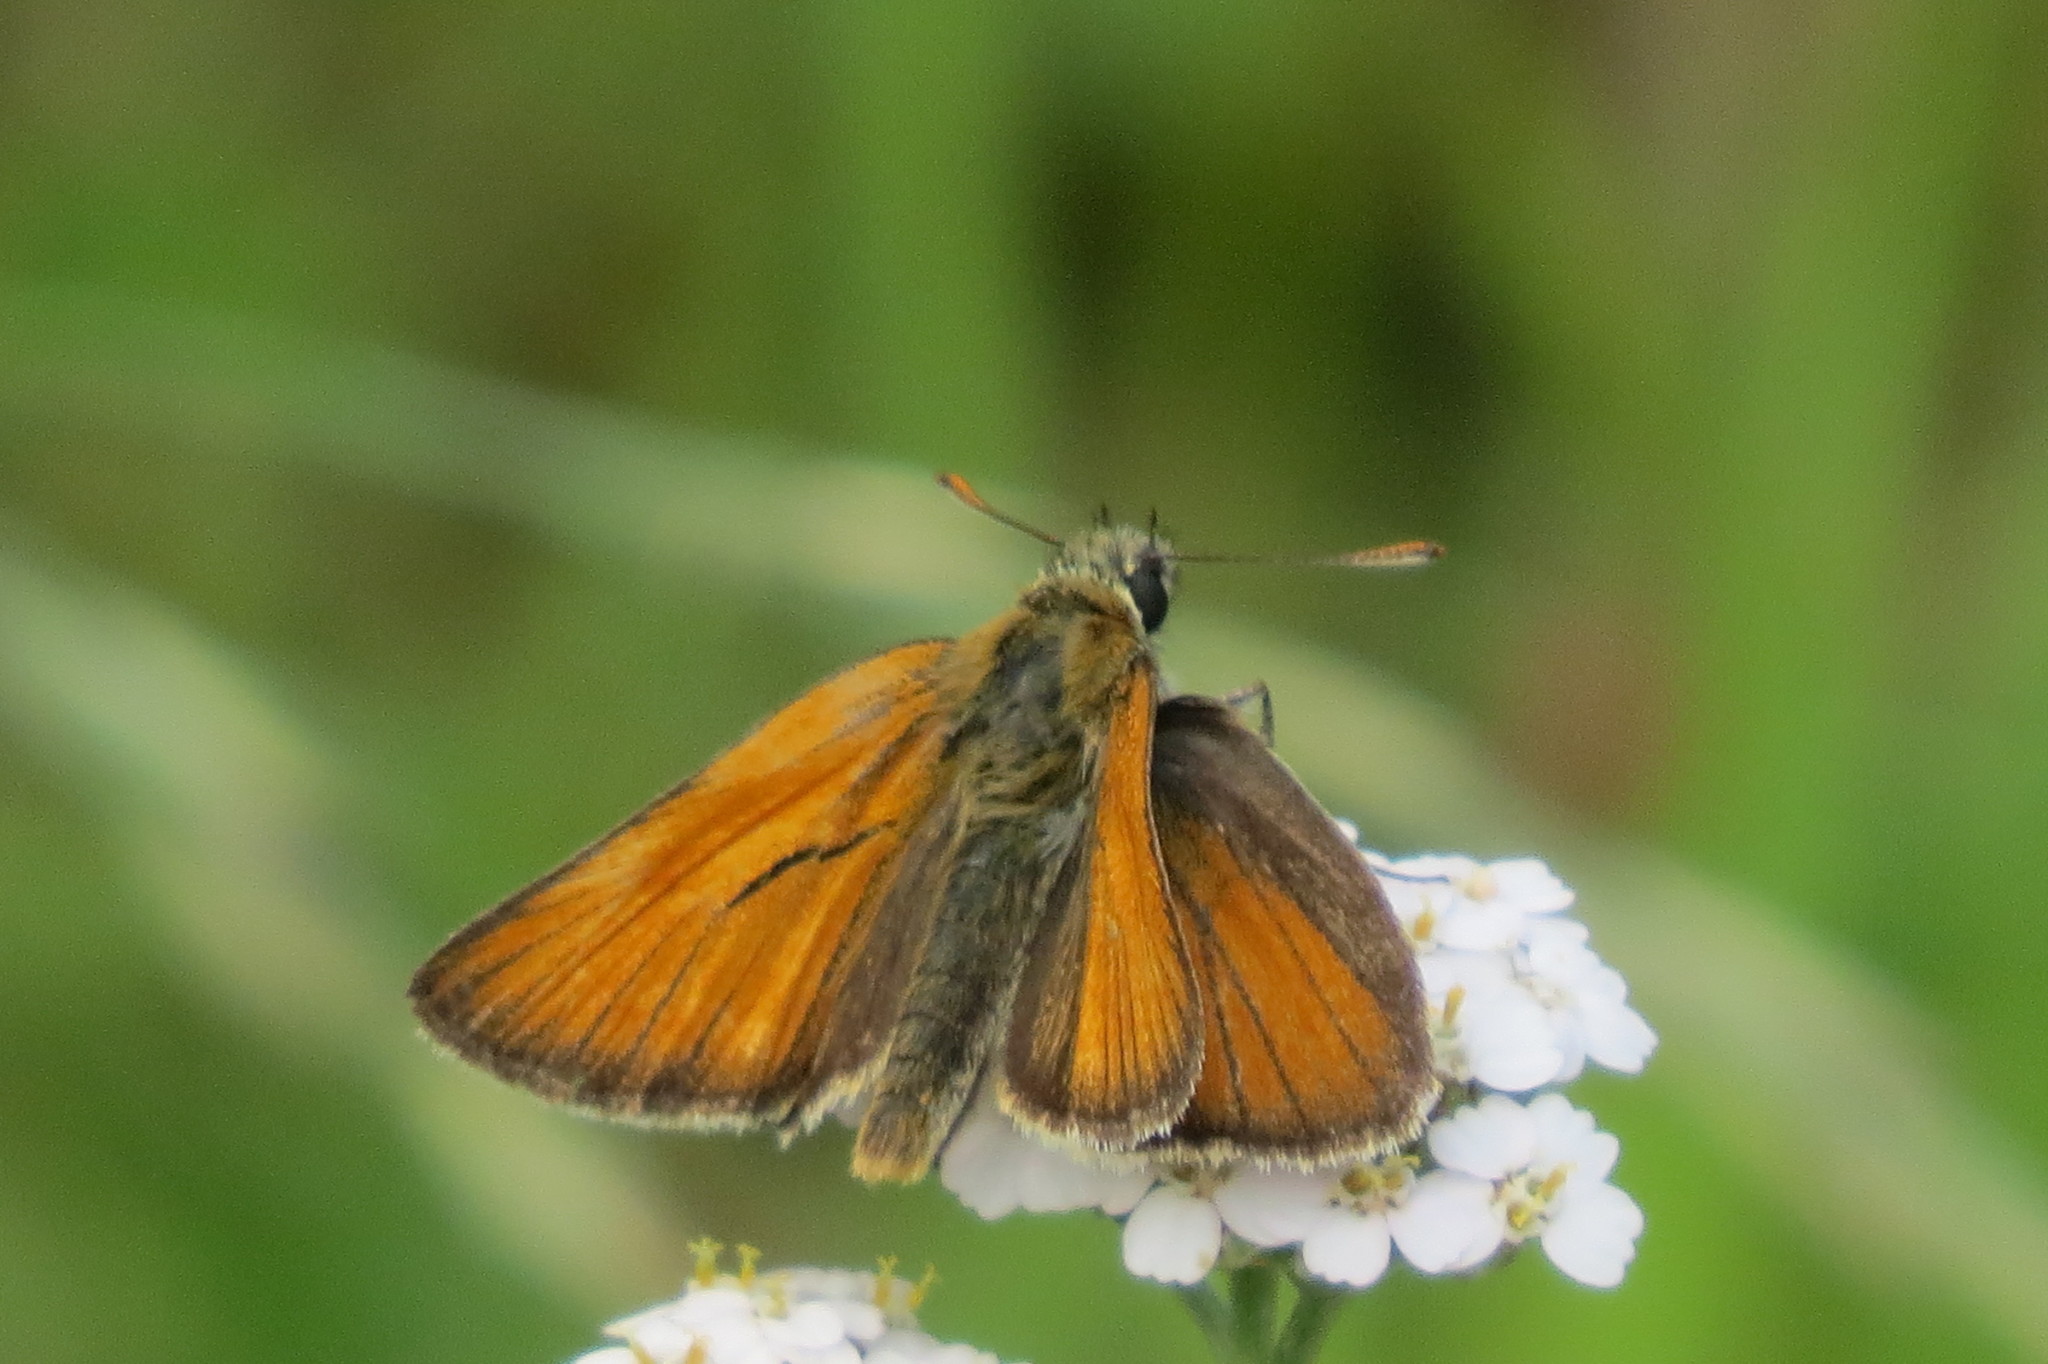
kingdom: Animalia
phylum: Arthropoda
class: Insecta
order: Lepidoptera
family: Hesperiidae
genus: Thymelicus
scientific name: Thymelicus sylvestris
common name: Small skipper
